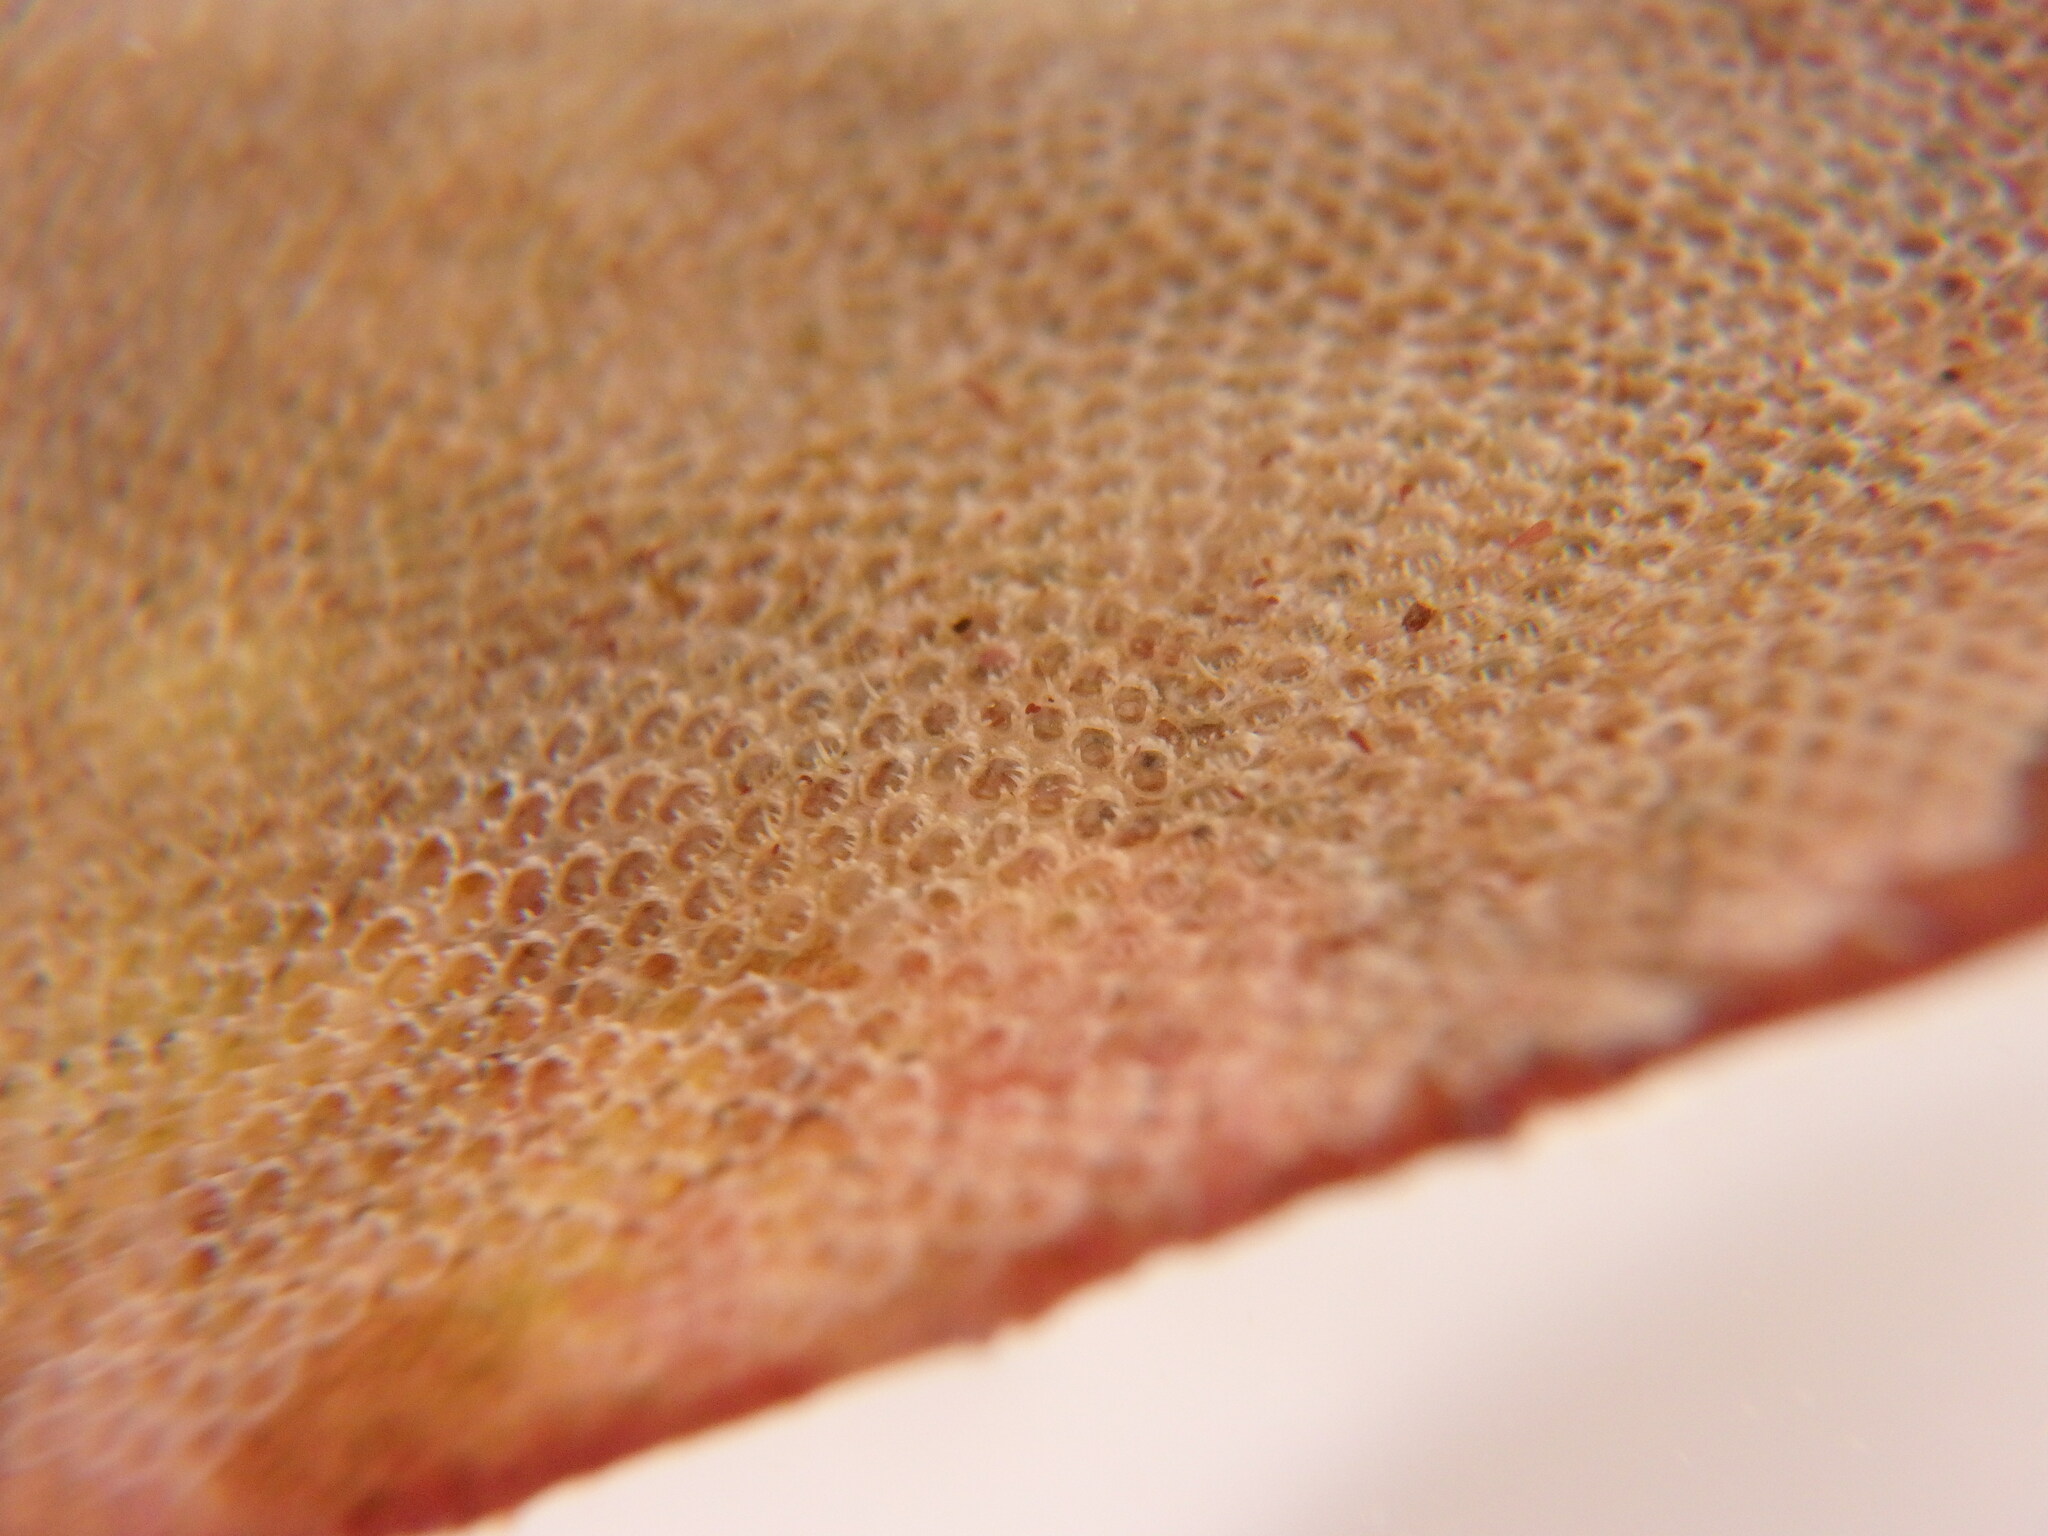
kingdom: Animalia
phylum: Bryozoa
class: Gymnolaemata
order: Cheilostomatida
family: Electridae
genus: Electra
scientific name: Electra pilosa
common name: Hairy sea-mat
